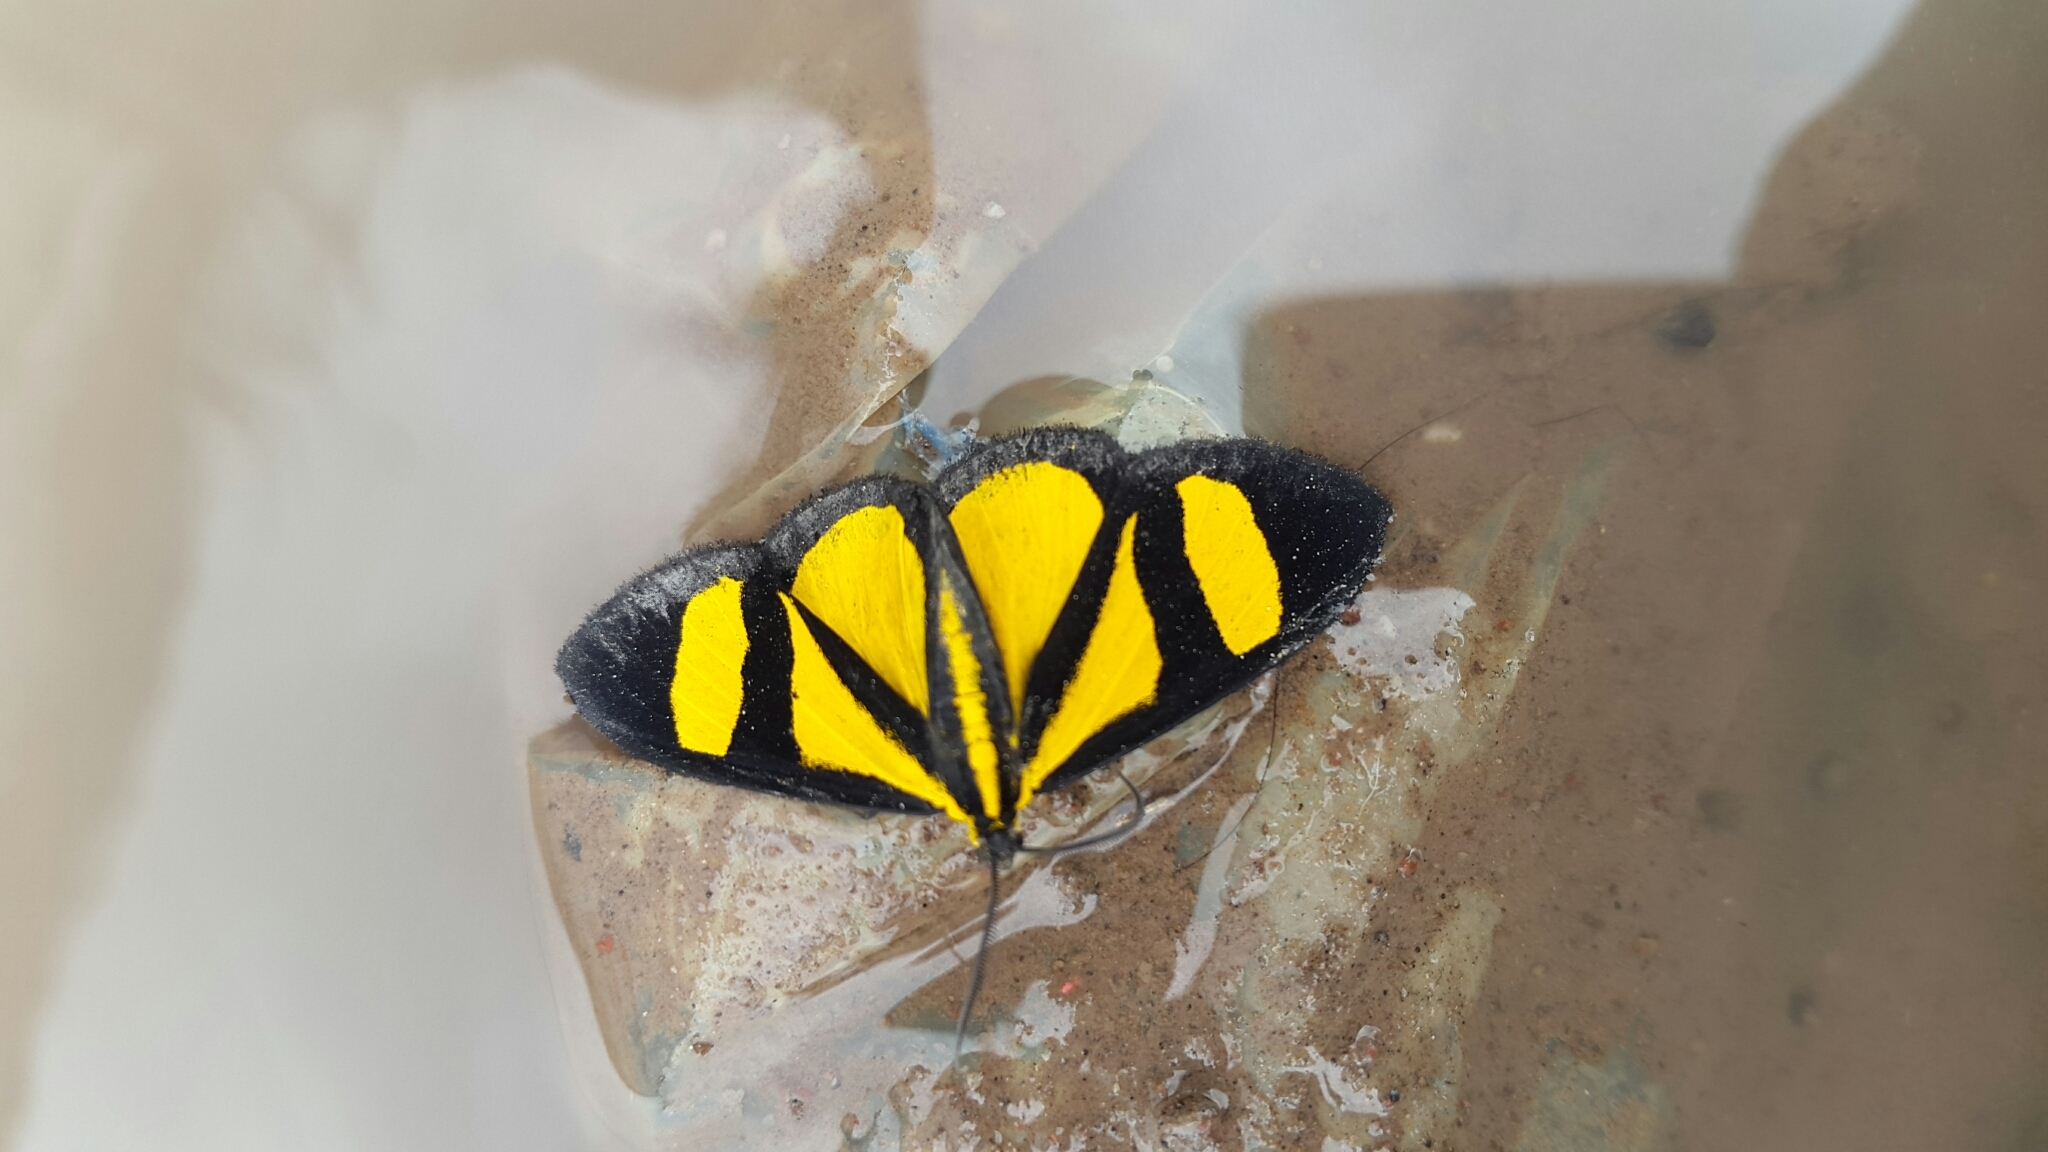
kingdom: Animalia
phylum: Arthropoda
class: Insecta
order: Lepidoptera
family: Geometridae
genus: Smicropus
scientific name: Smicropus laeta
